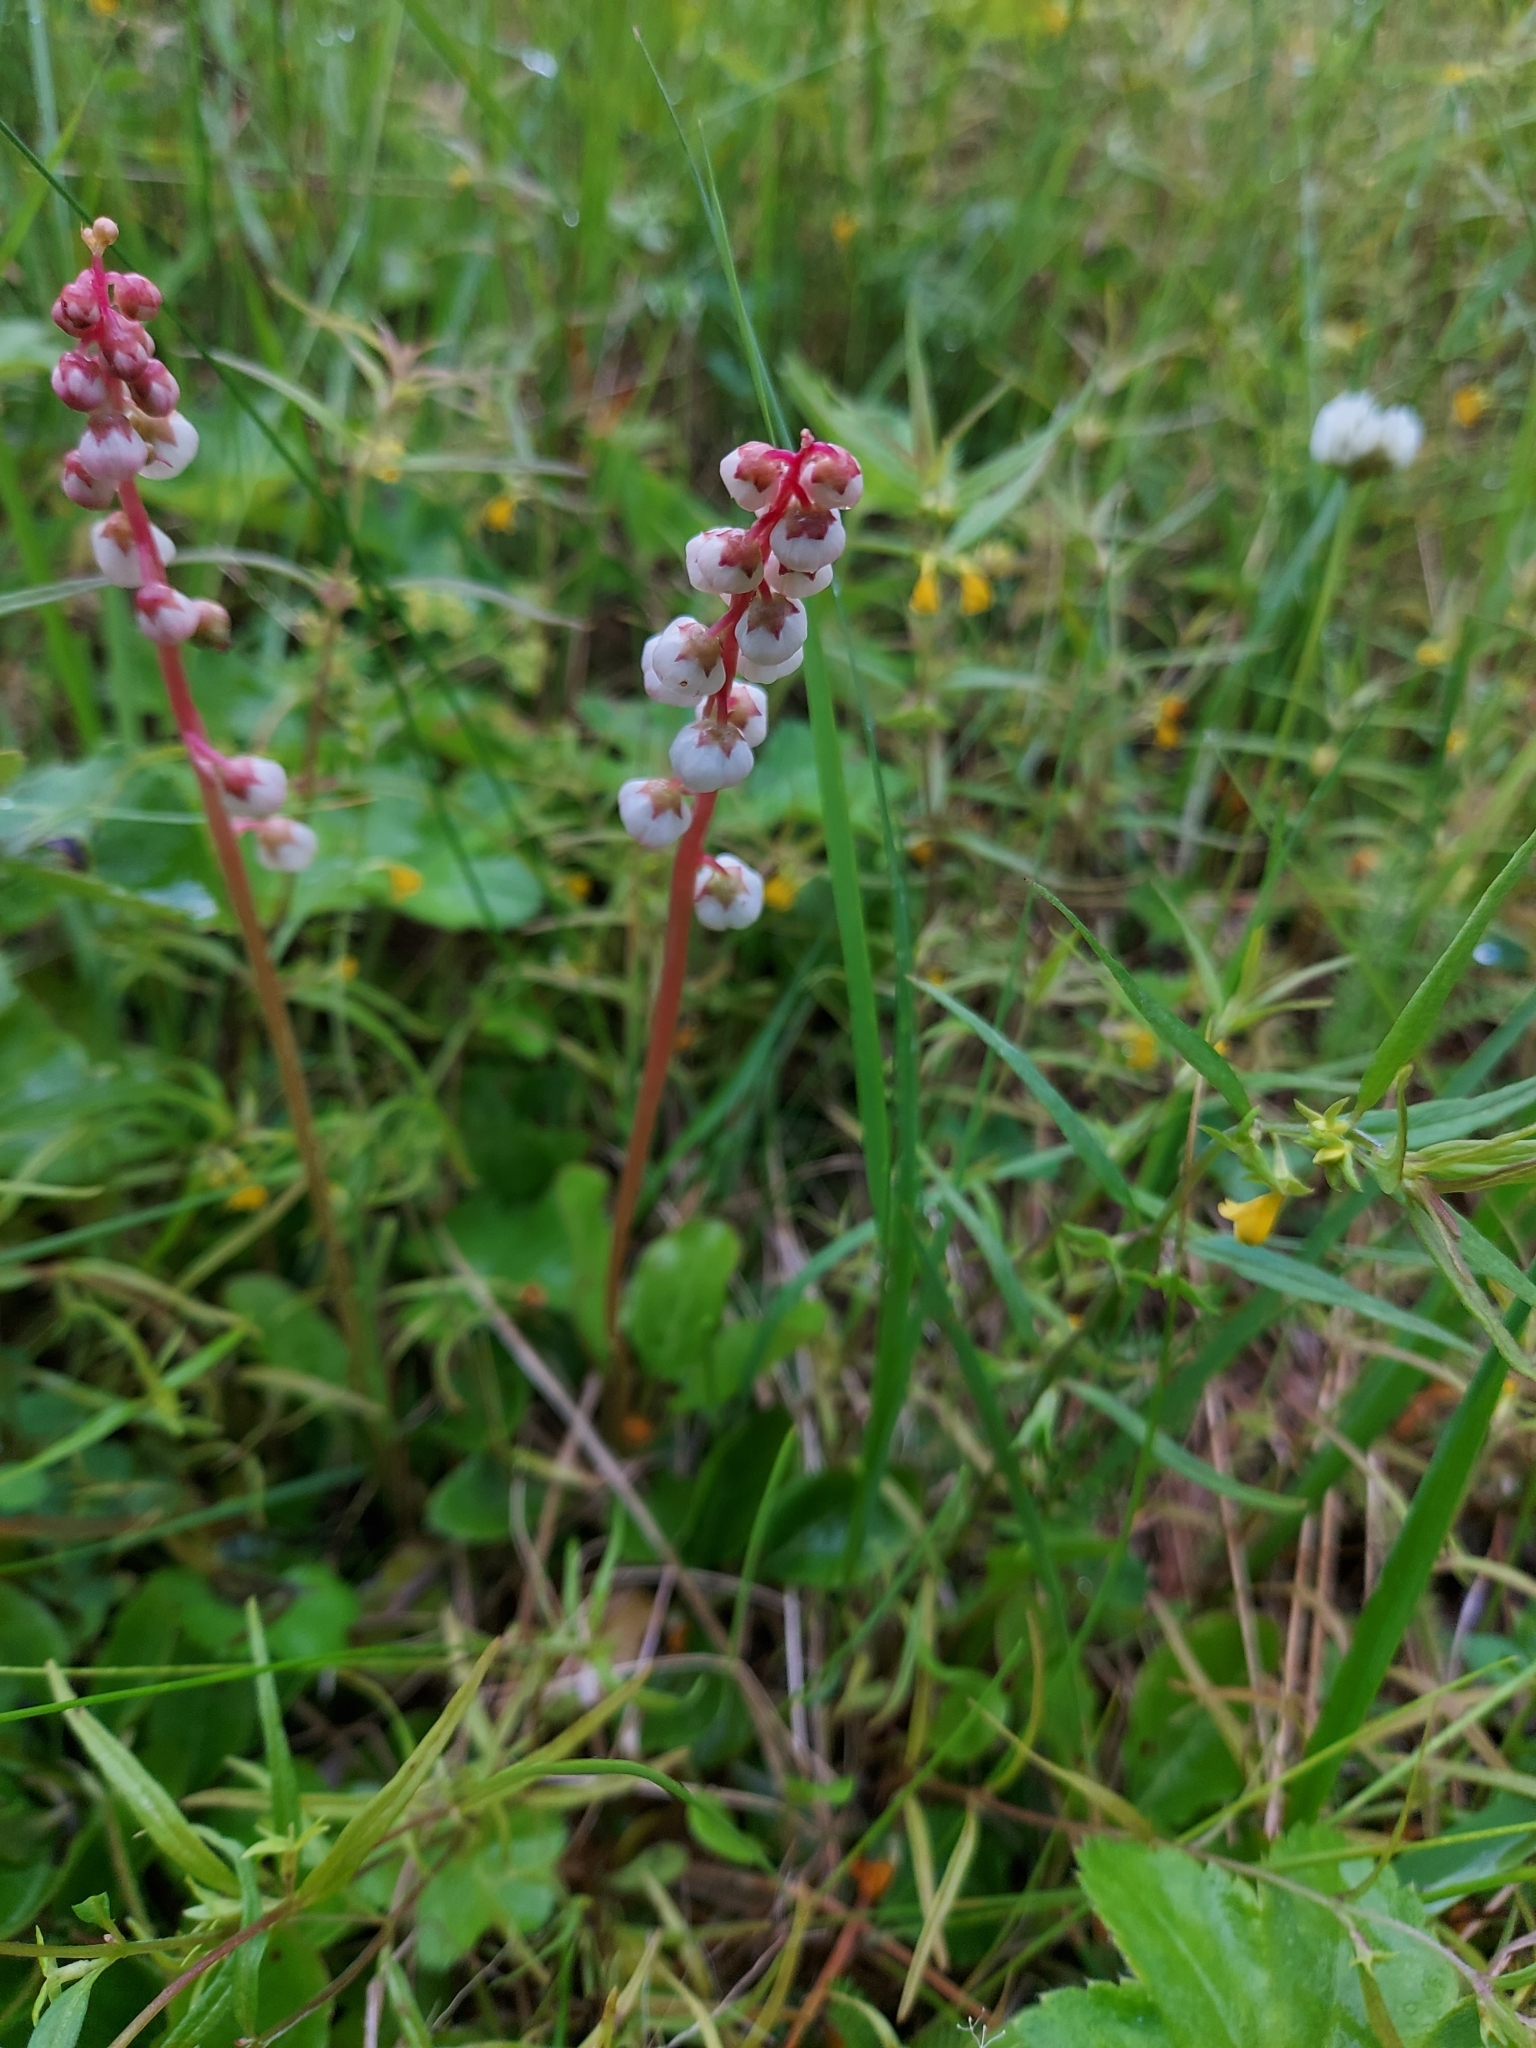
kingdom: Plantae
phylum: Tracheophyta
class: Magnoliopsida
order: Ericales
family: Ericaceae
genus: Pyrola
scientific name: Pyrola minor
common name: Common wintergreen
